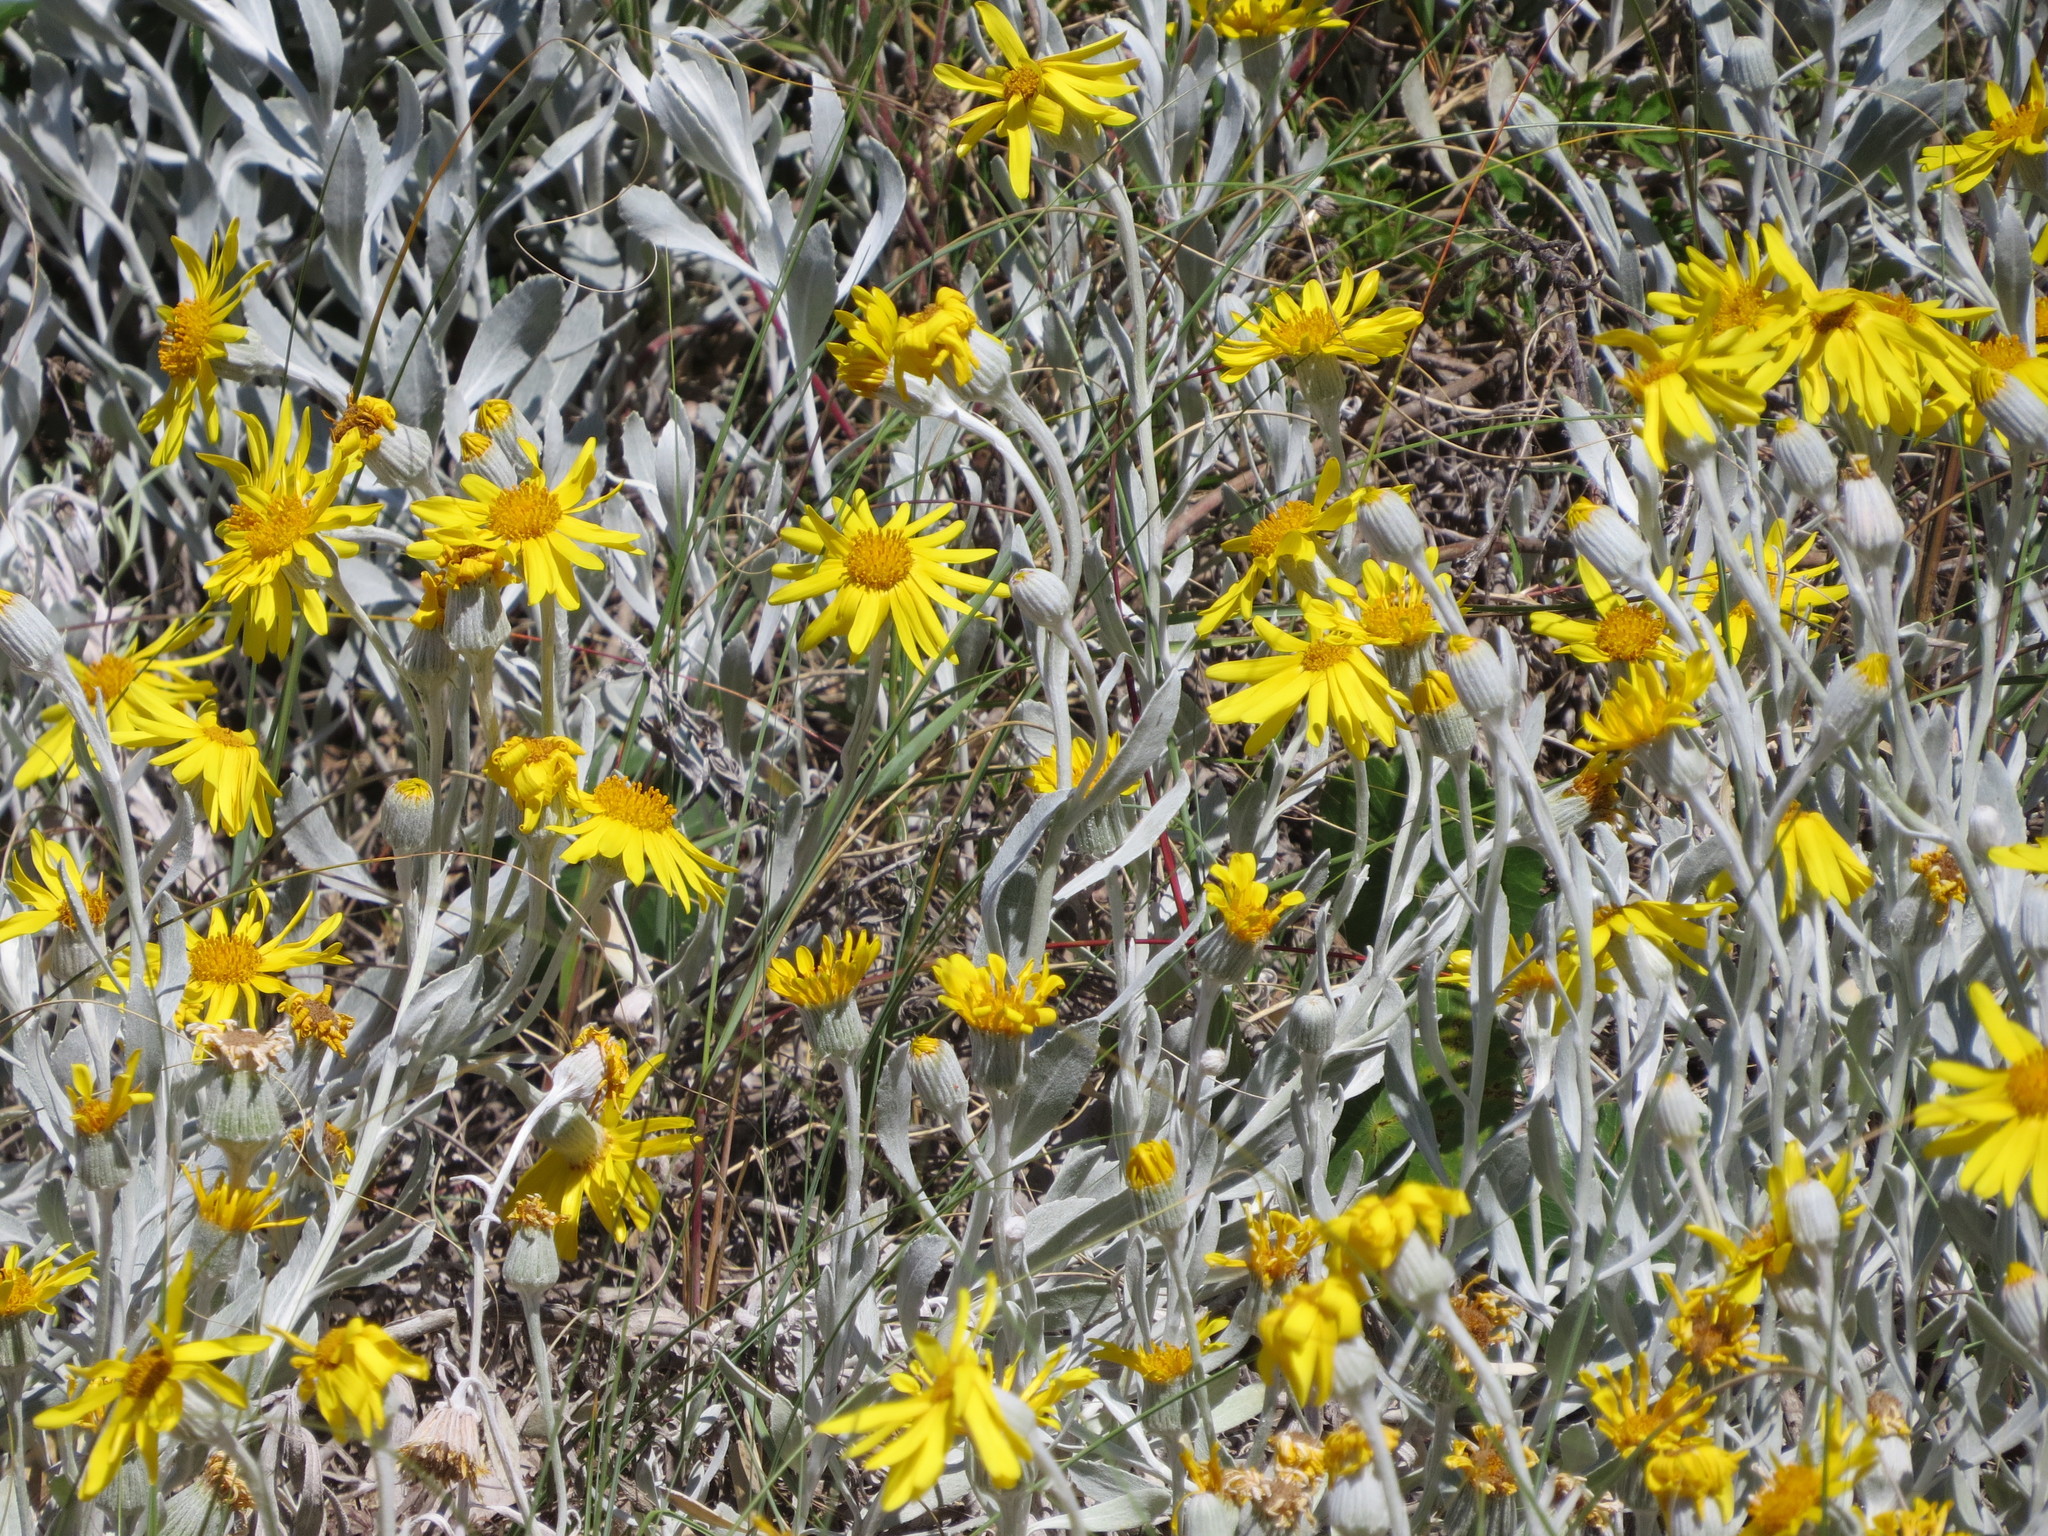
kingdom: Plantae
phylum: Tracheophyta
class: Magnoliopsida
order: Asterales
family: Asteraceae
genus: Senecio
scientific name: Senecio crassiflorus
